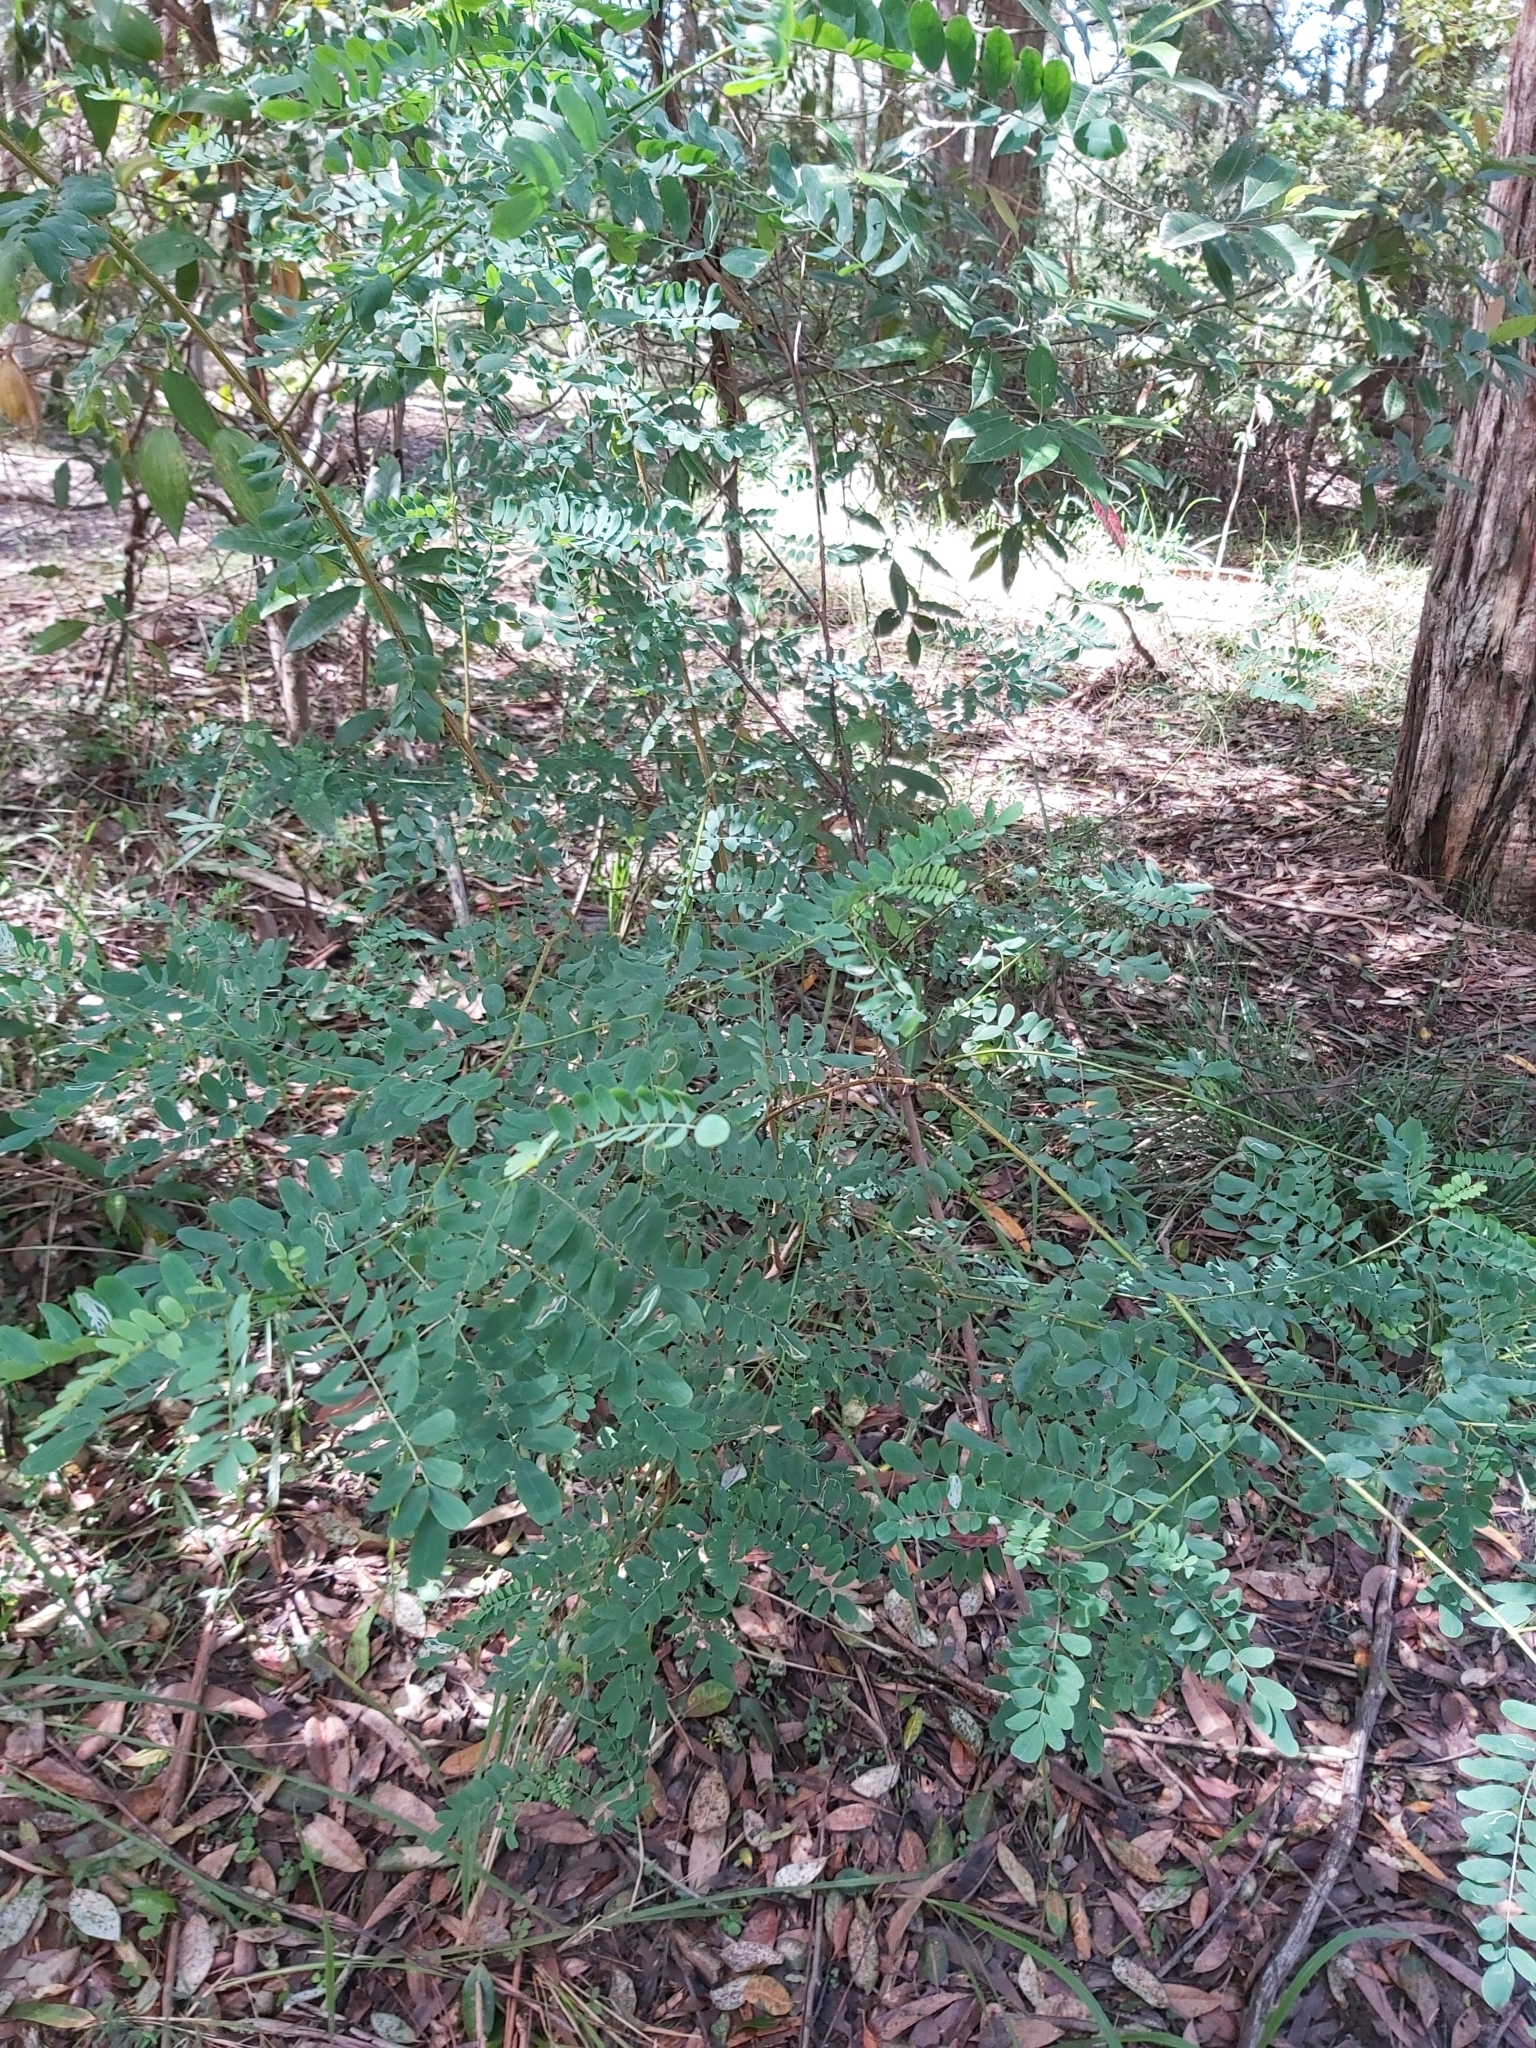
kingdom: Plantae
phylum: Tracheophyta
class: Magnoliopsida
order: Fabales
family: Fabaceae
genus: Indigofera
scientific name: Indigofera australis
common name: Australian indigo
